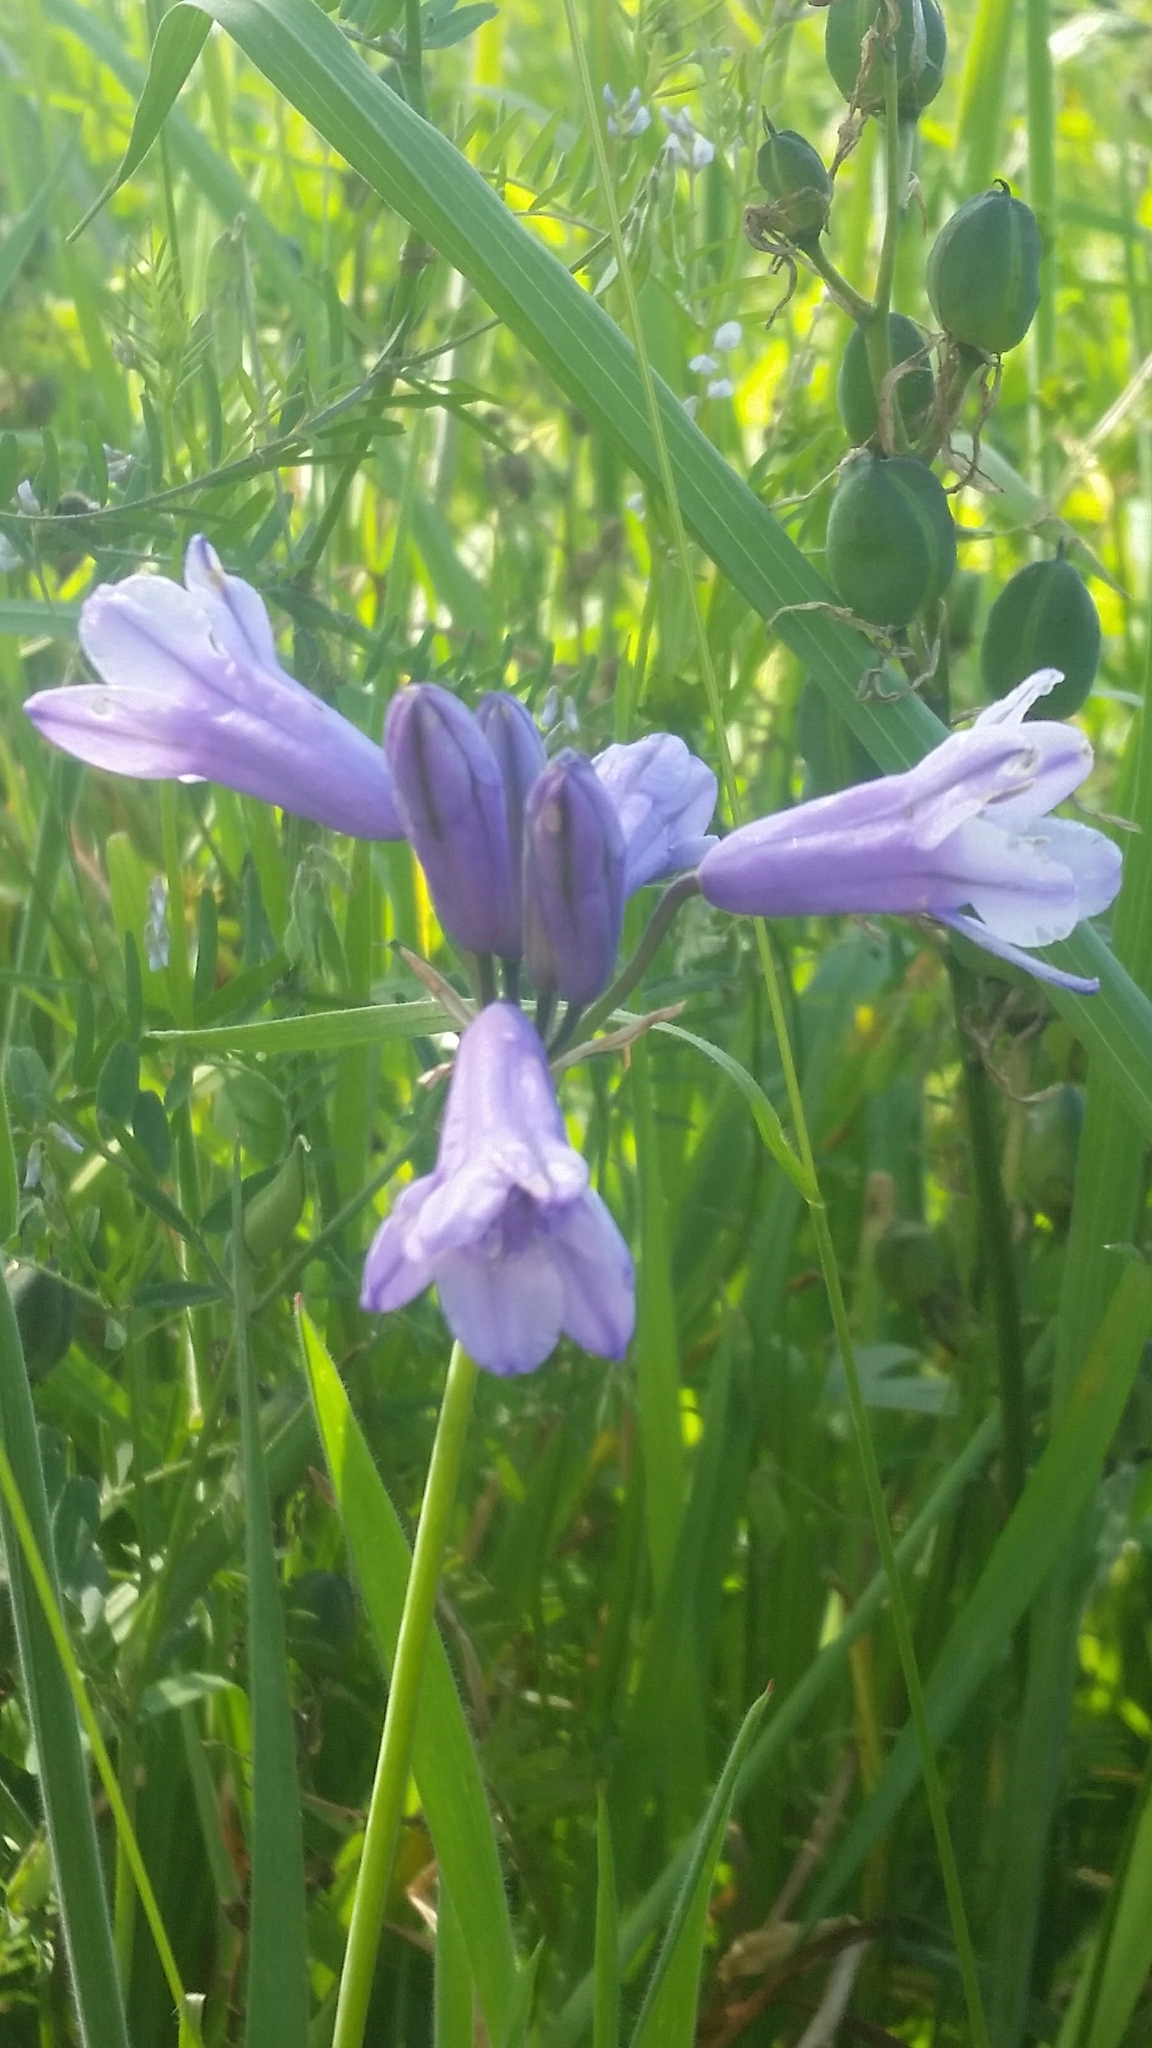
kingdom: Plantae
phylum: Tracheophyta
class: Liliopsida
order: Asparagales
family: Asparagaceae
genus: Triteleia
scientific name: Triteleia grandiflora
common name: Wild hyacinth
